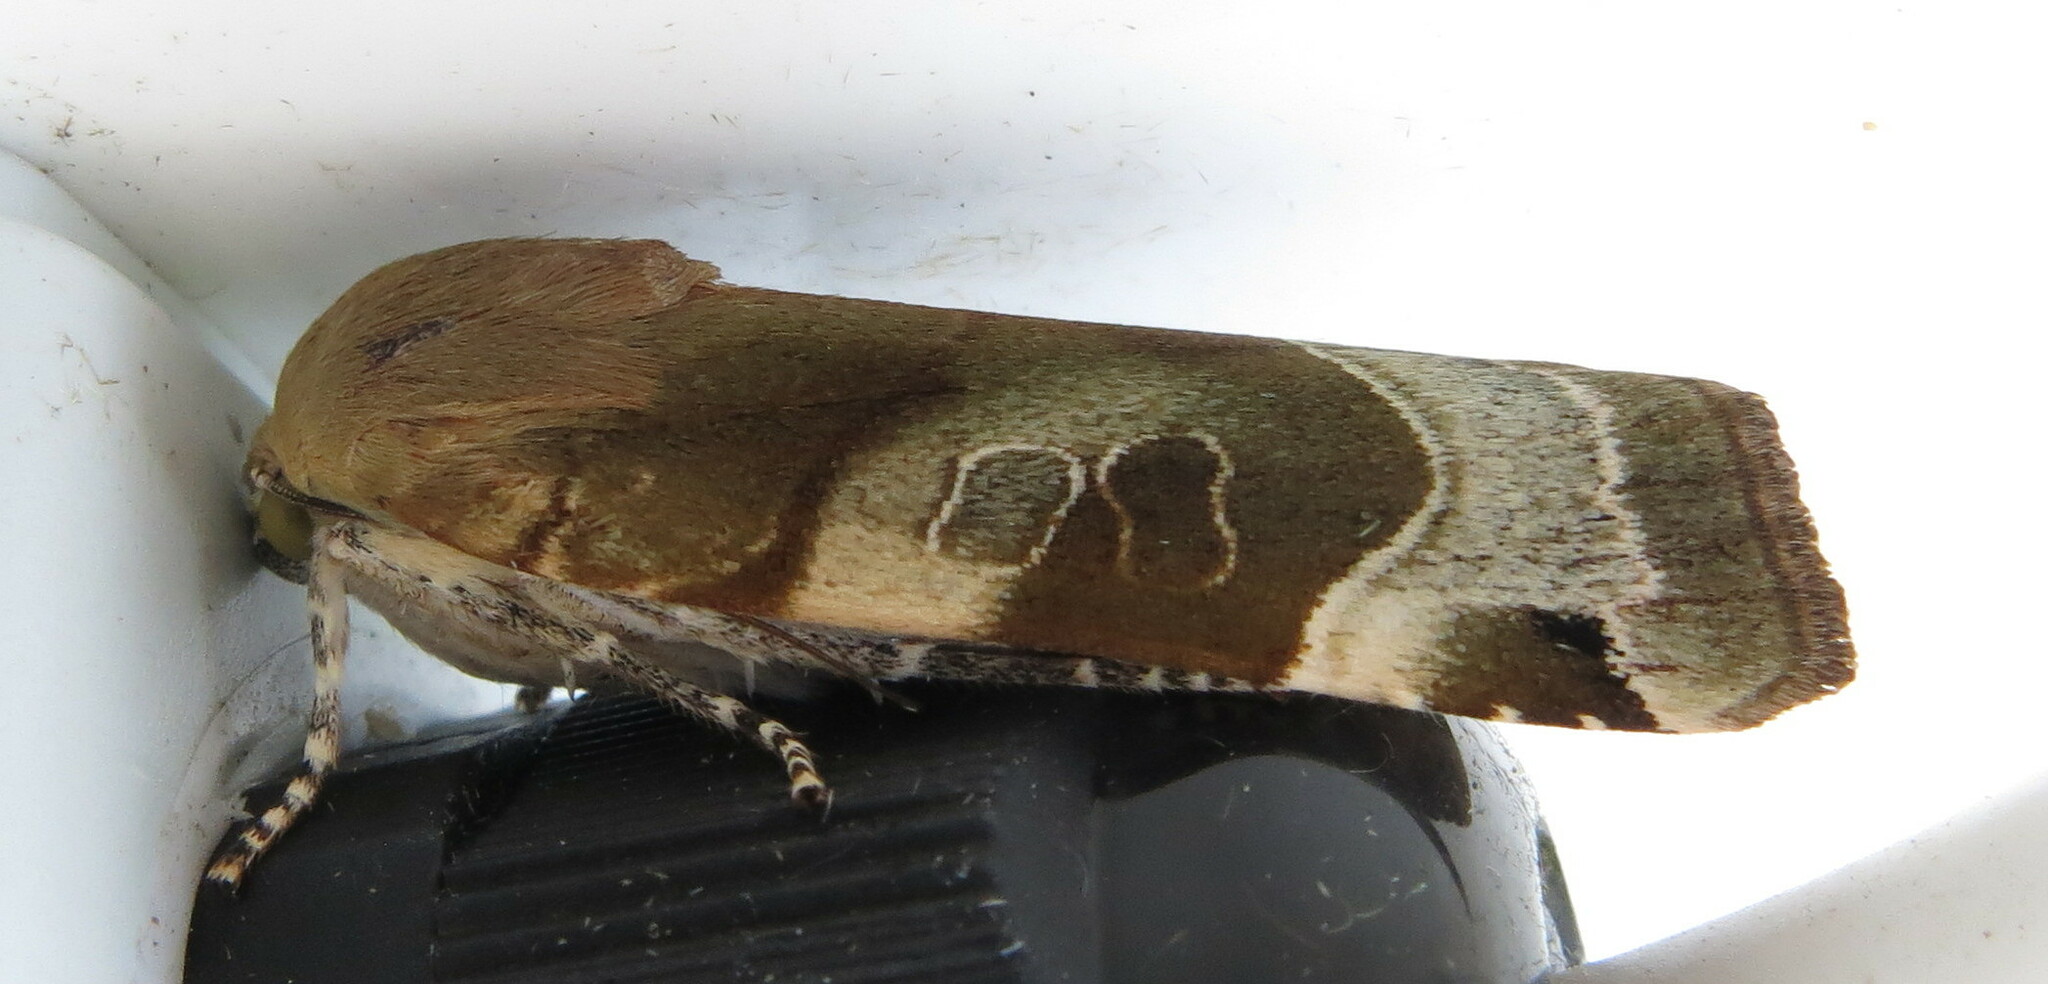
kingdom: Animalia
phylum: Arthropoda
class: Insecta
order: Lepidoptera
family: Noctuidae
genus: Noctua
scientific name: Noctua fimbriata
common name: Broad-bordered yellow underwing
